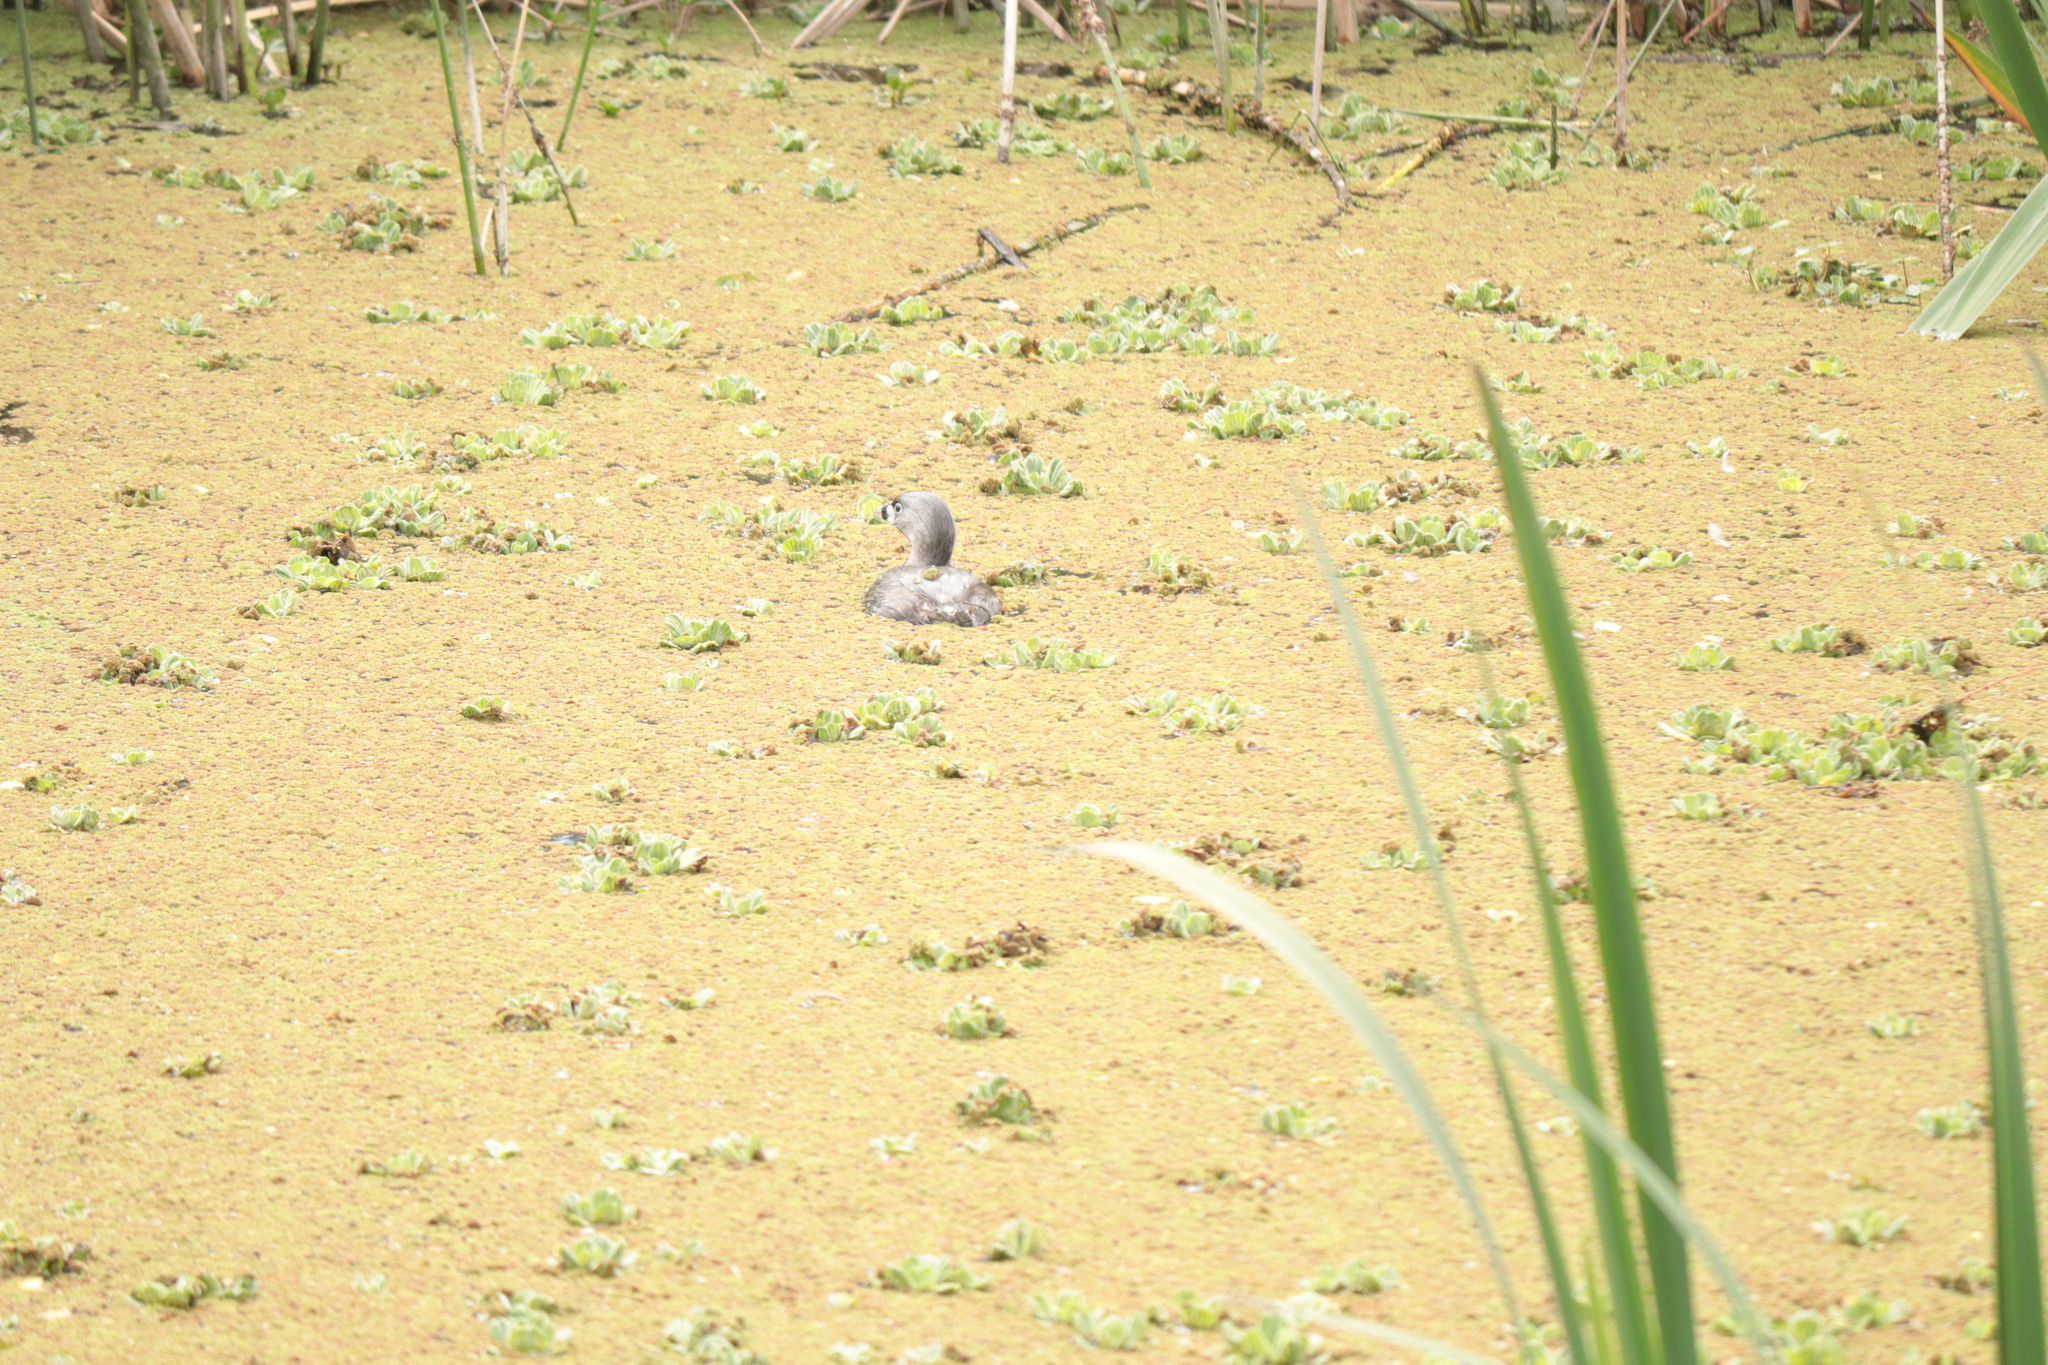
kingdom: Animalia
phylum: Chordata
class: Aves
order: Podicipediformes
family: Podicipedidae
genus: Podilymbus
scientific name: Podilymbus podiceps
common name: Pied-billed grebe
